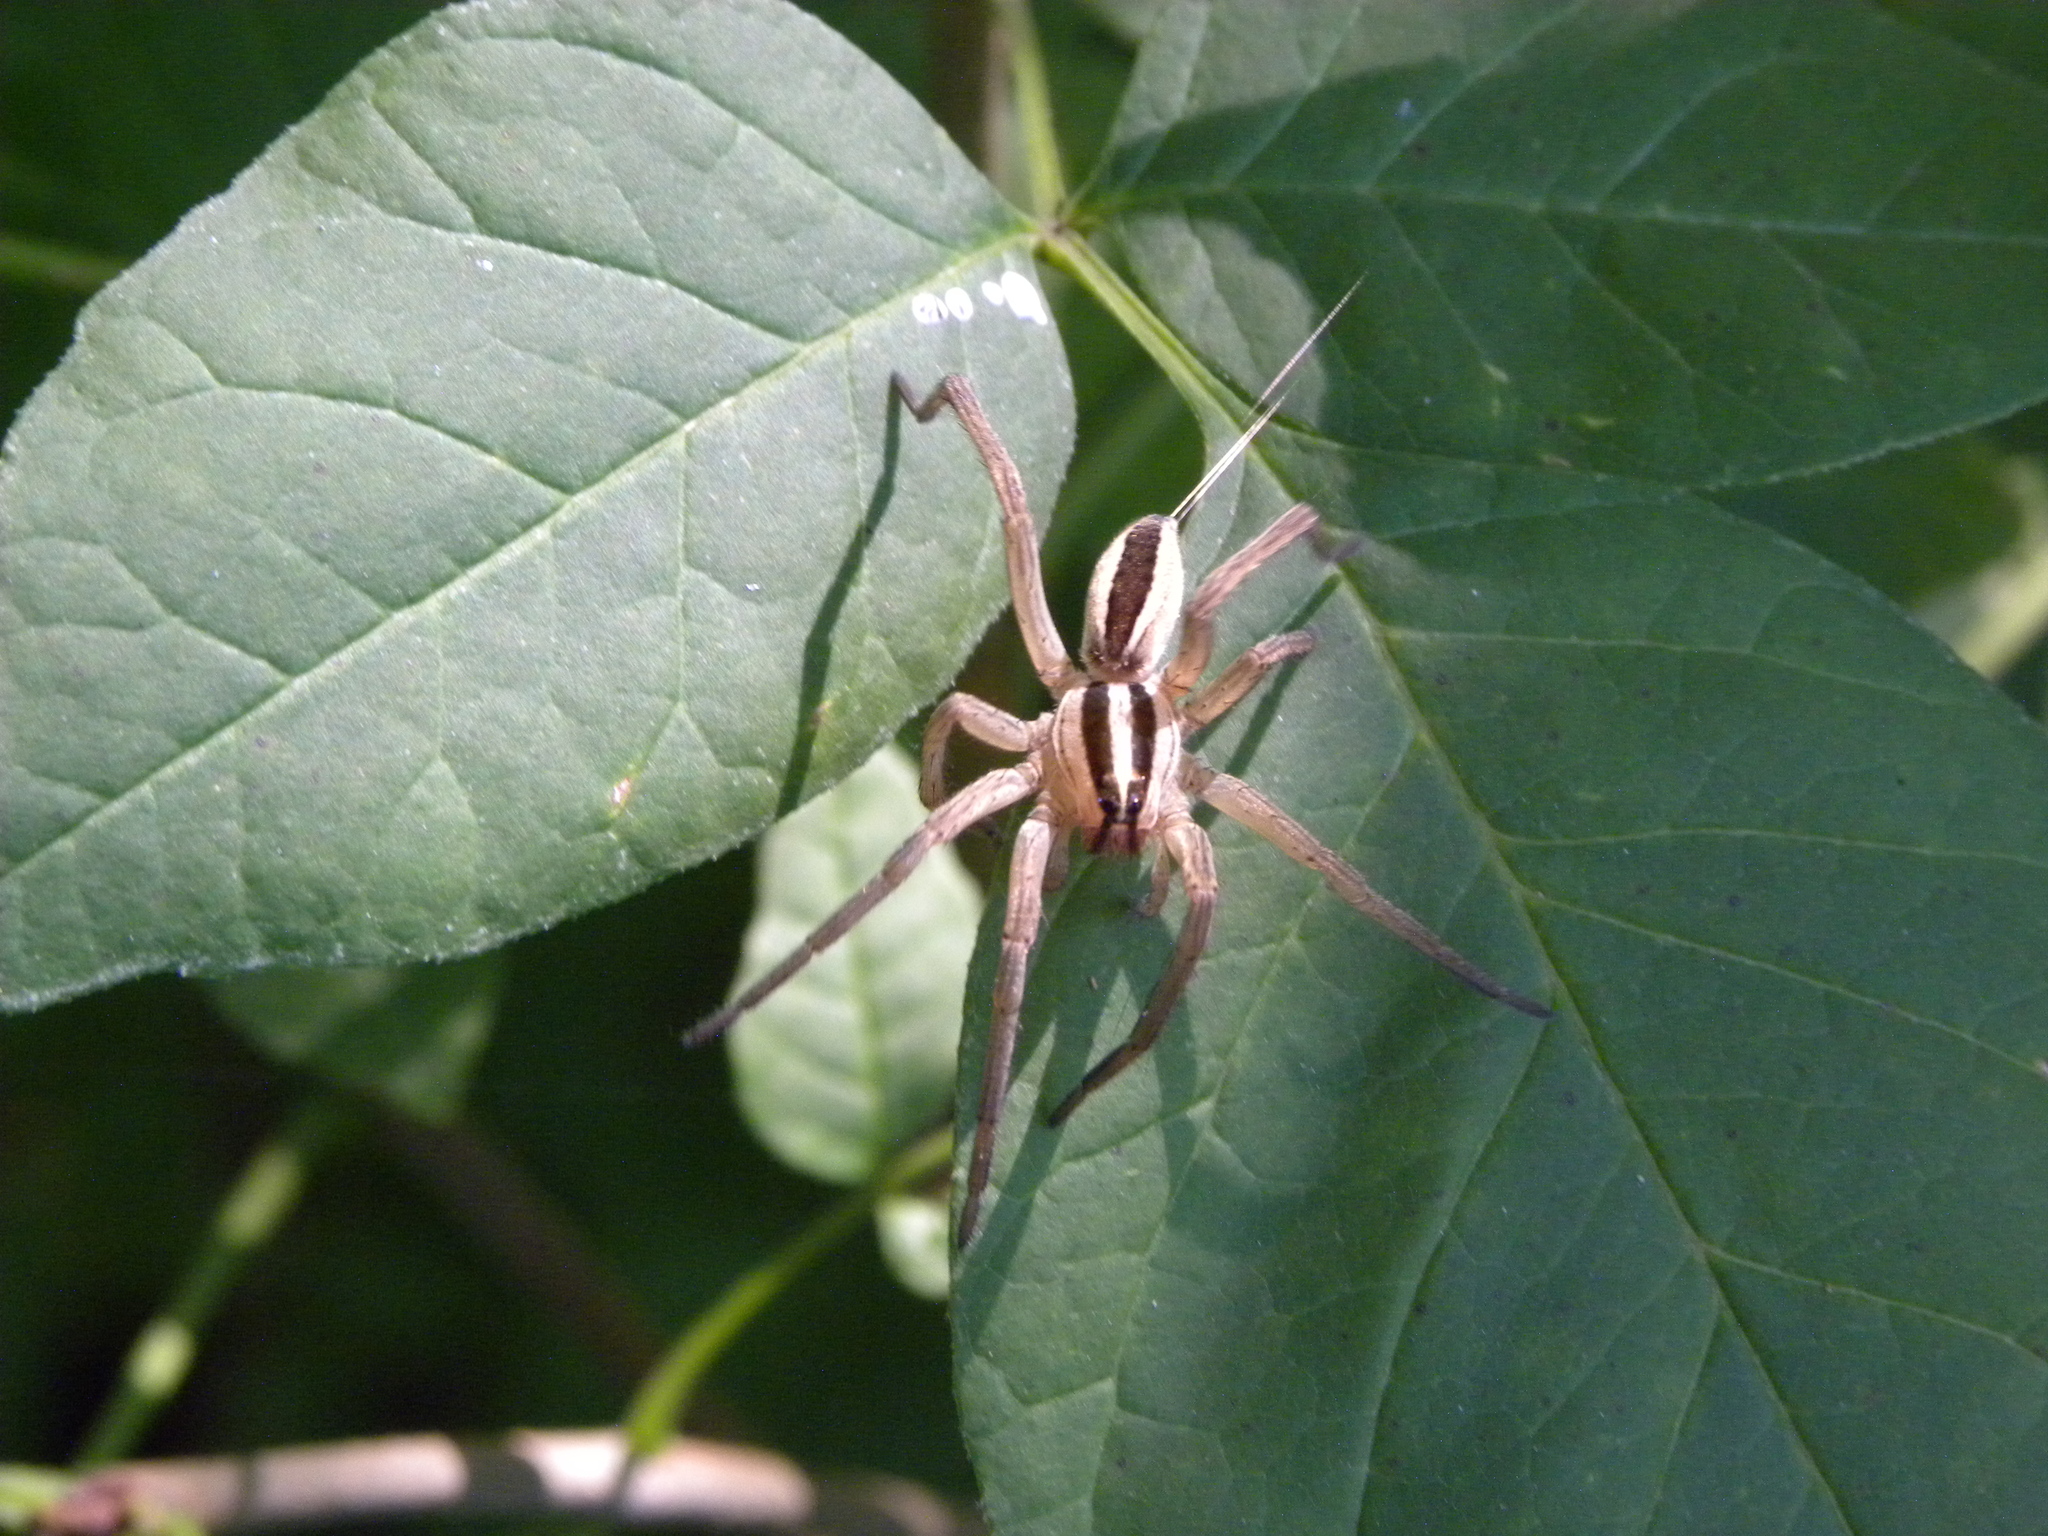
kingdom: Animalia
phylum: Arthropoda
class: Arachnida
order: Araneae
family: Lycosidae
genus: Rabidosa
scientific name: Rabidosa punctulata
